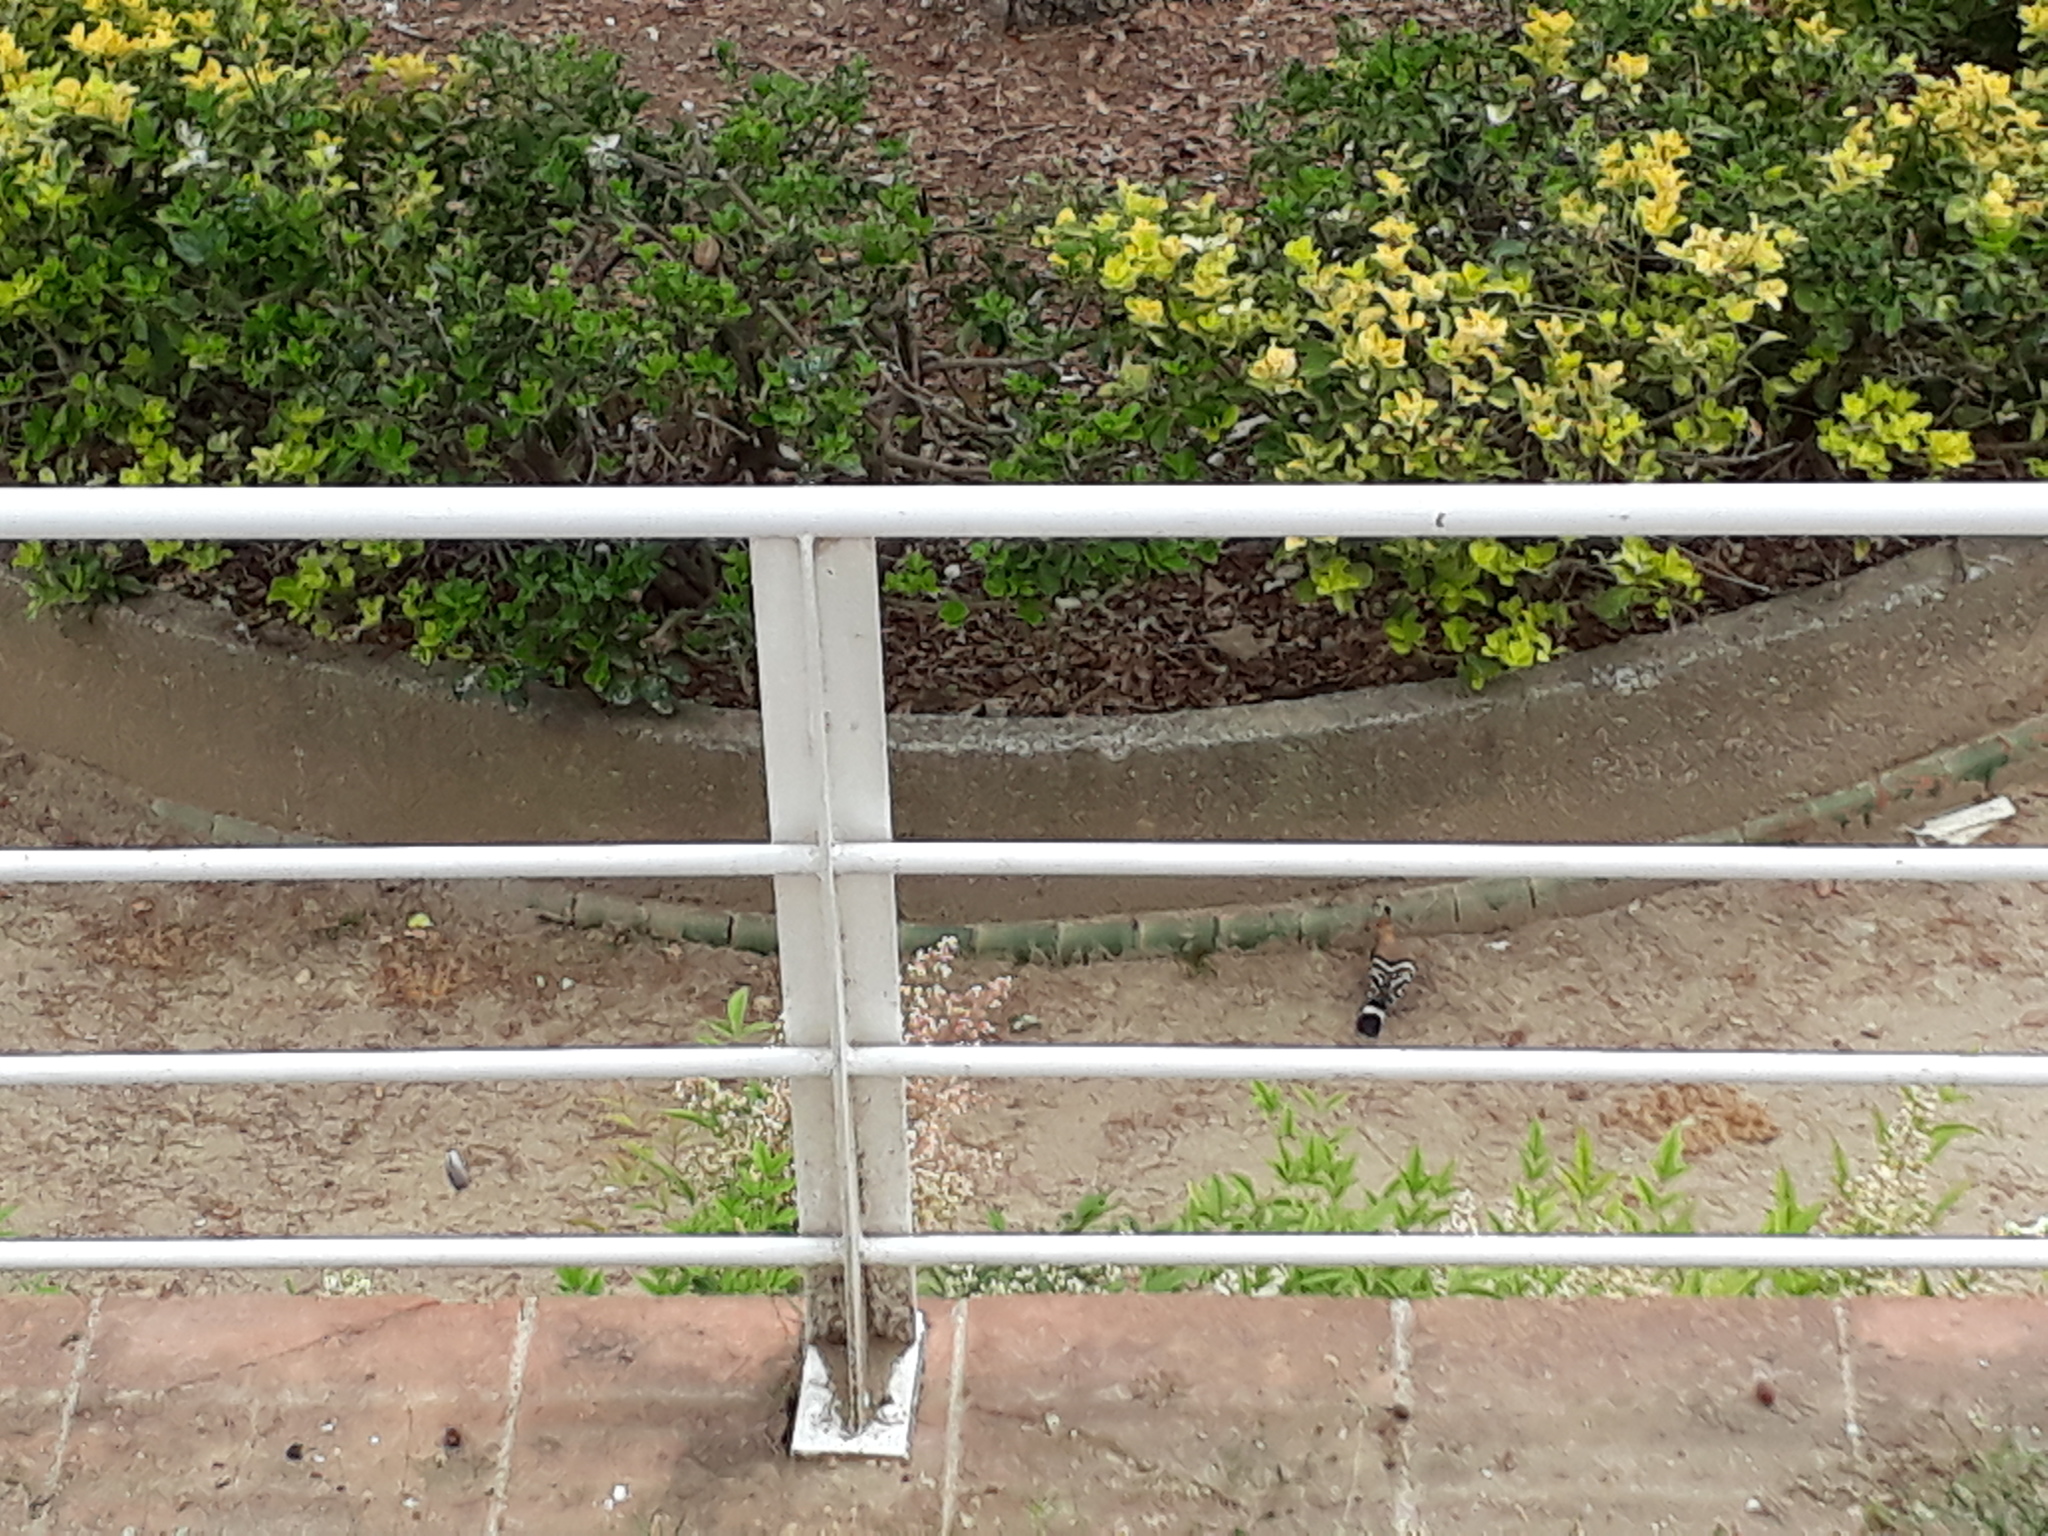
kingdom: Animalia
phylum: Chordata
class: Aves
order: Bucerotiformes
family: Upupidae
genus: Upupa
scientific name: Upupa epops
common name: Eurasian hoopoe
